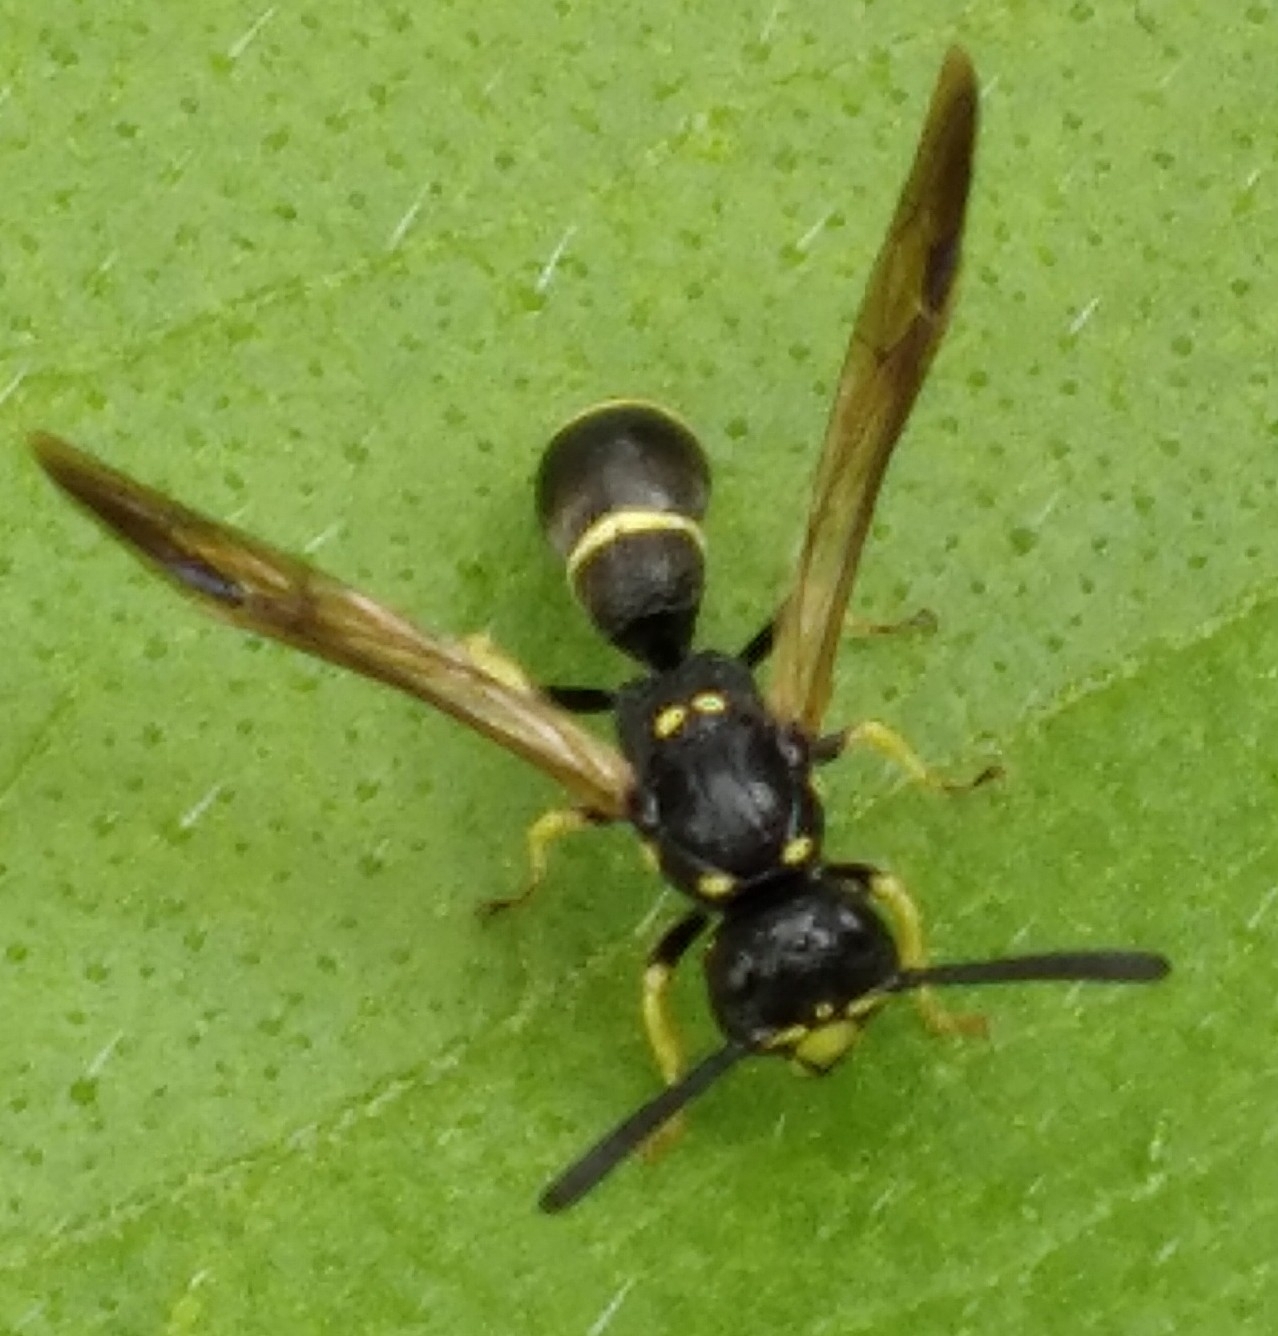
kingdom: Animalia
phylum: Arthropoda
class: Insecta
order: Hymenoptera
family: Eumenidae
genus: Symmorphus
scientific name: Symmorphus canadensis
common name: Canadian potter wasp
